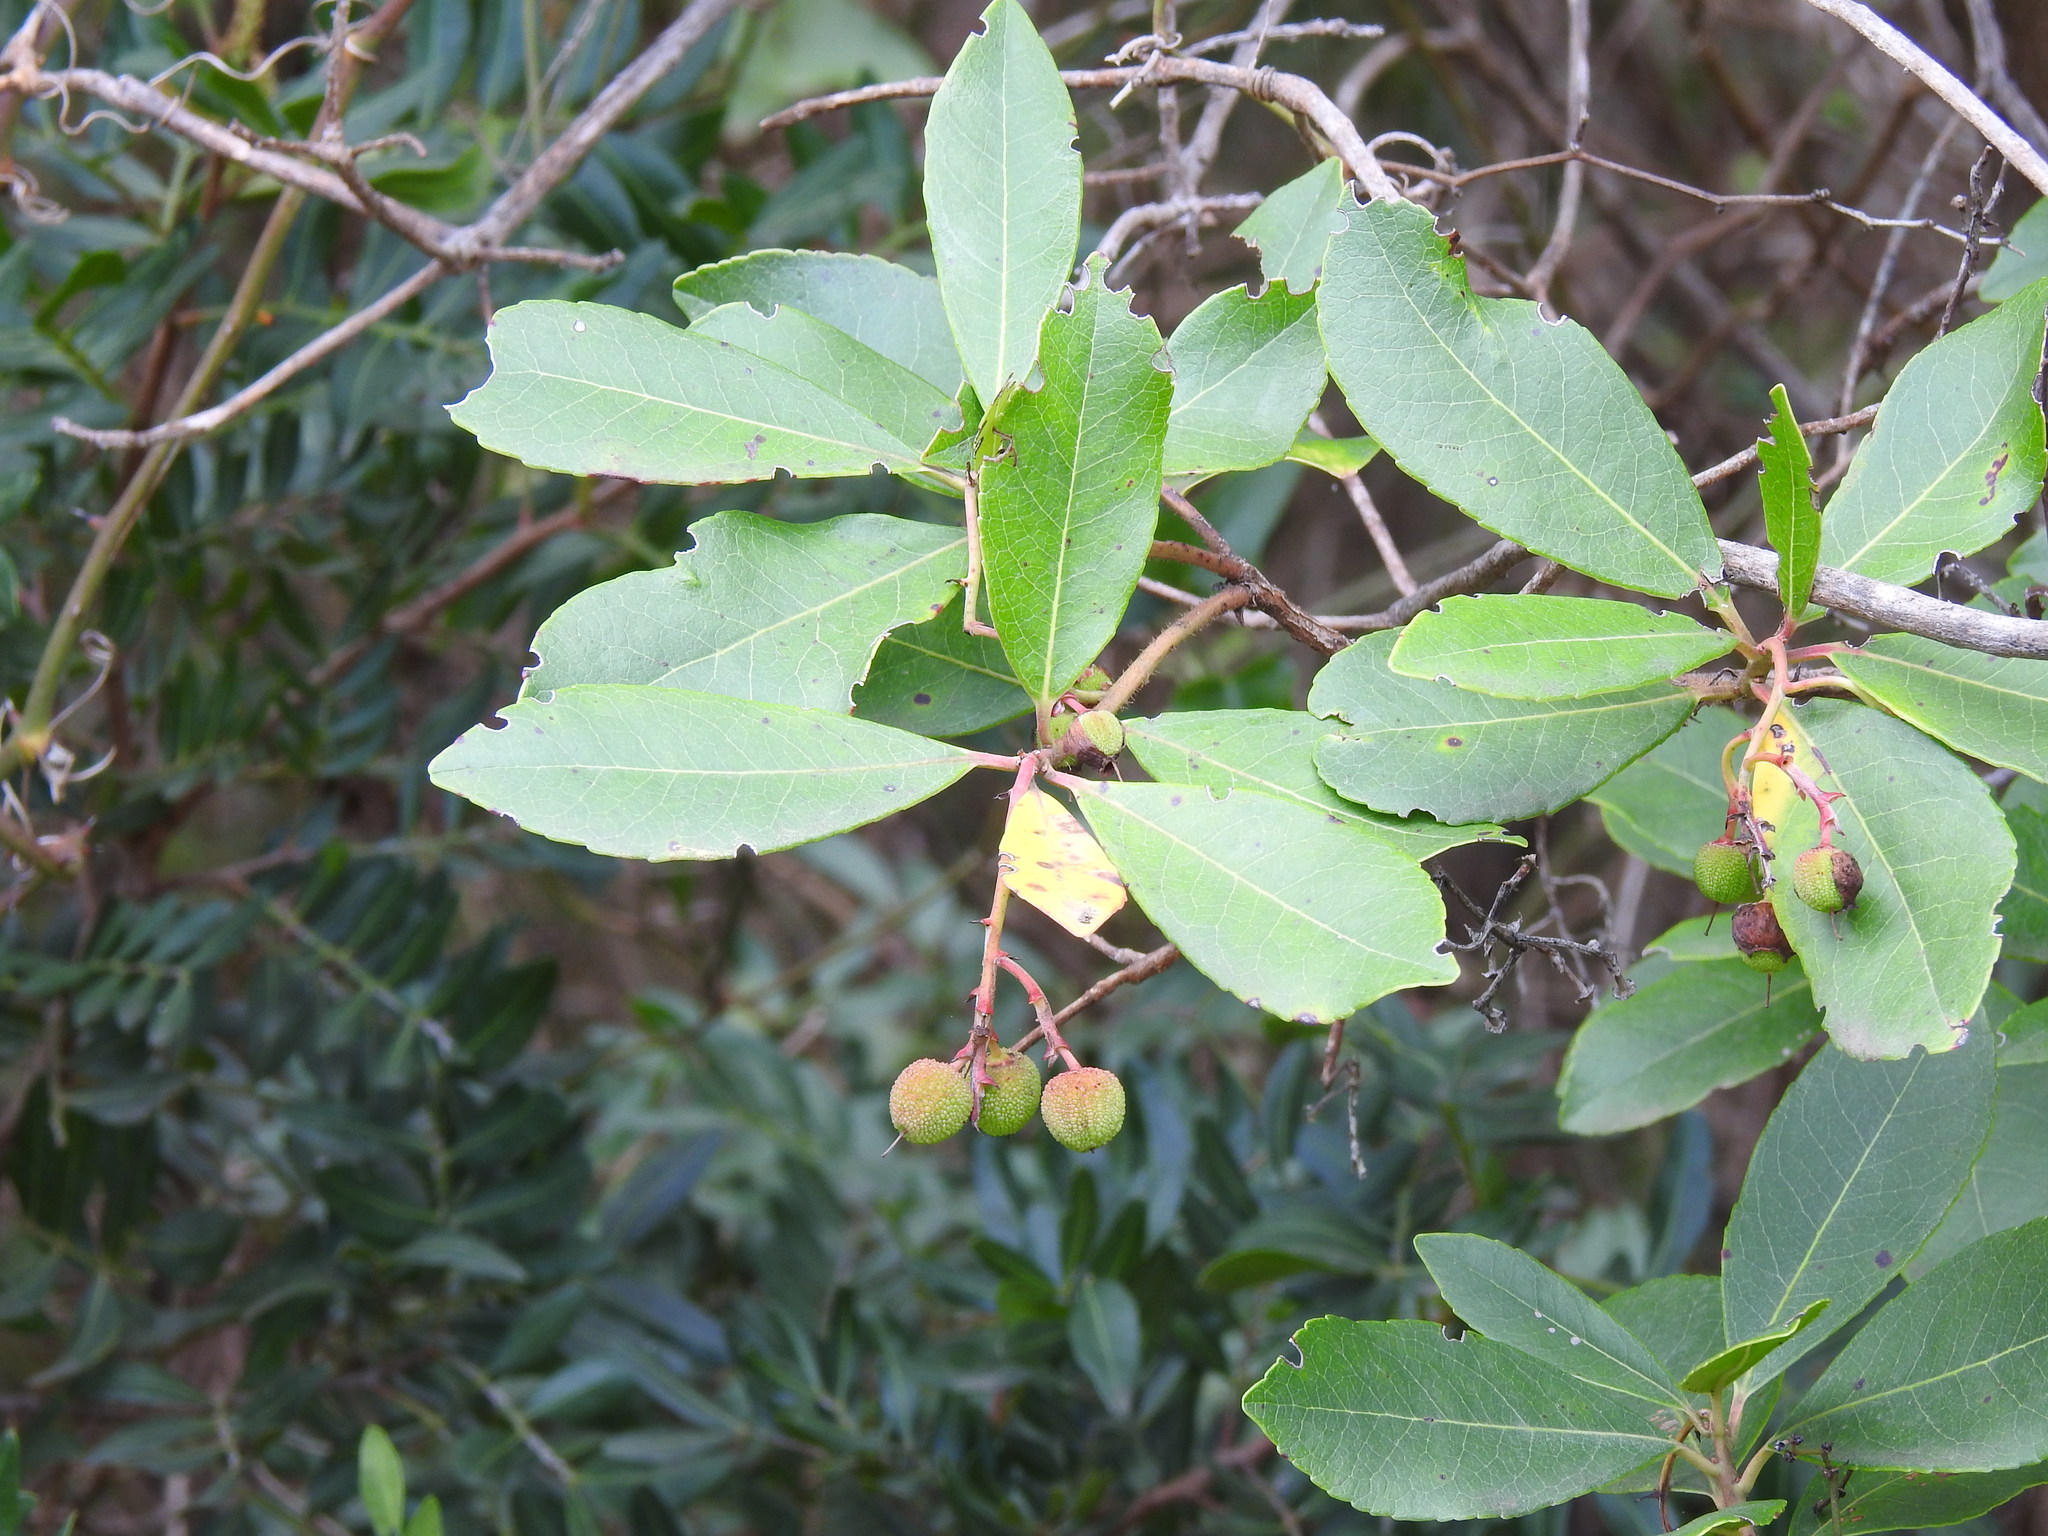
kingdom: Plantae
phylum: Tracheophyta
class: Magnoliopsida
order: Ericales
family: Ericaceae
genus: Arbutus
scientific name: Arbutus unedo
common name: Strawberry-tree
